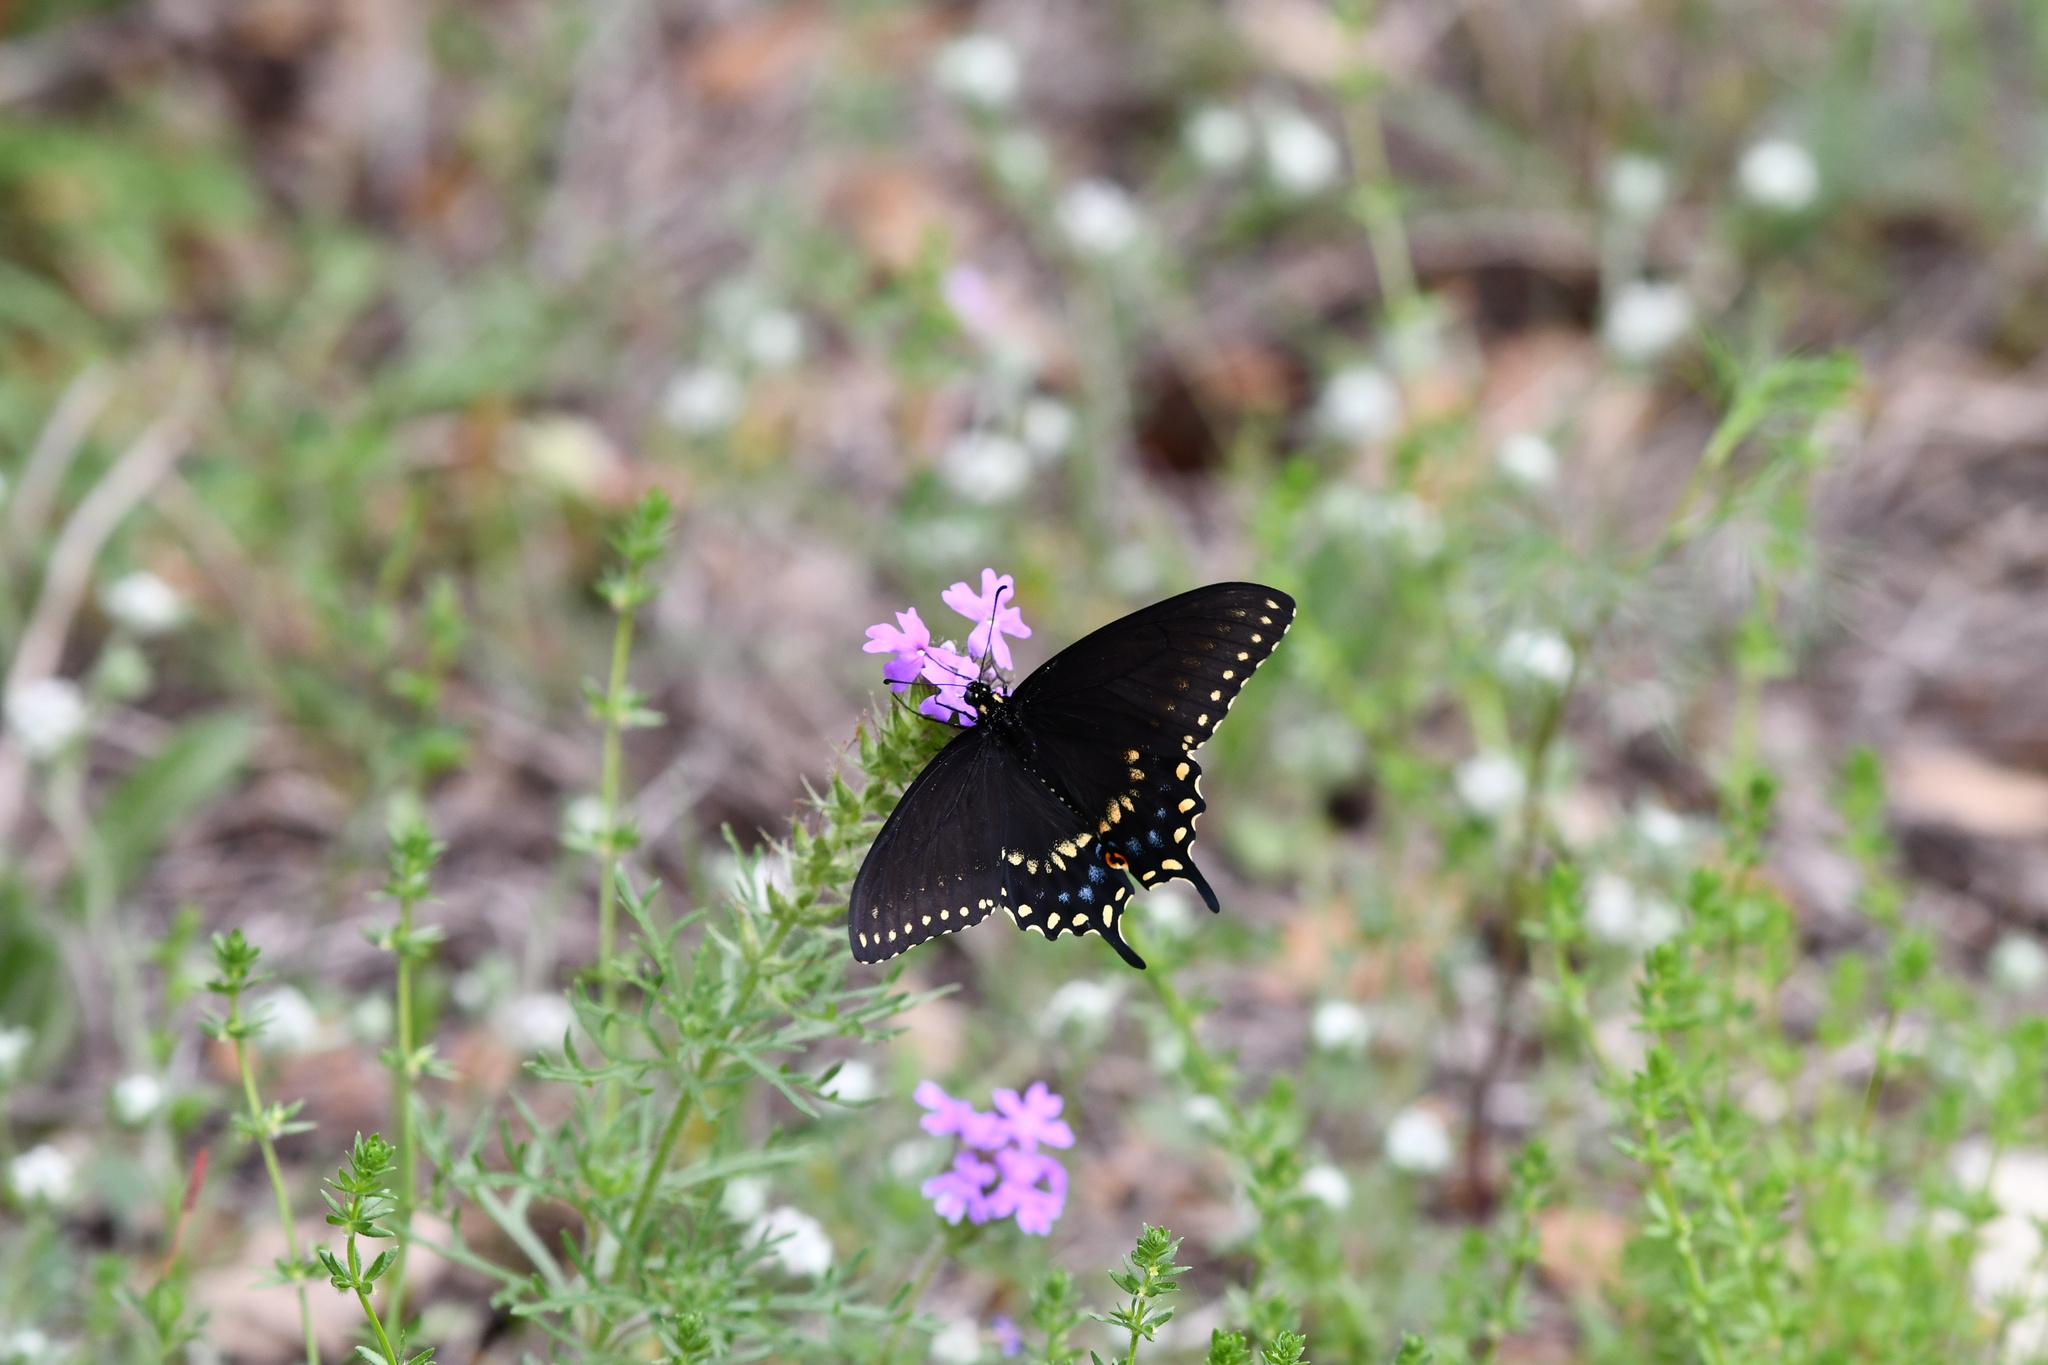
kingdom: Animalia
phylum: Arthropoda
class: Insecta
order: Lepidoptera
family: Papilionidae
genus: Papilio
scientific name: Papilio polyxenes
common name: Black swallowtail
